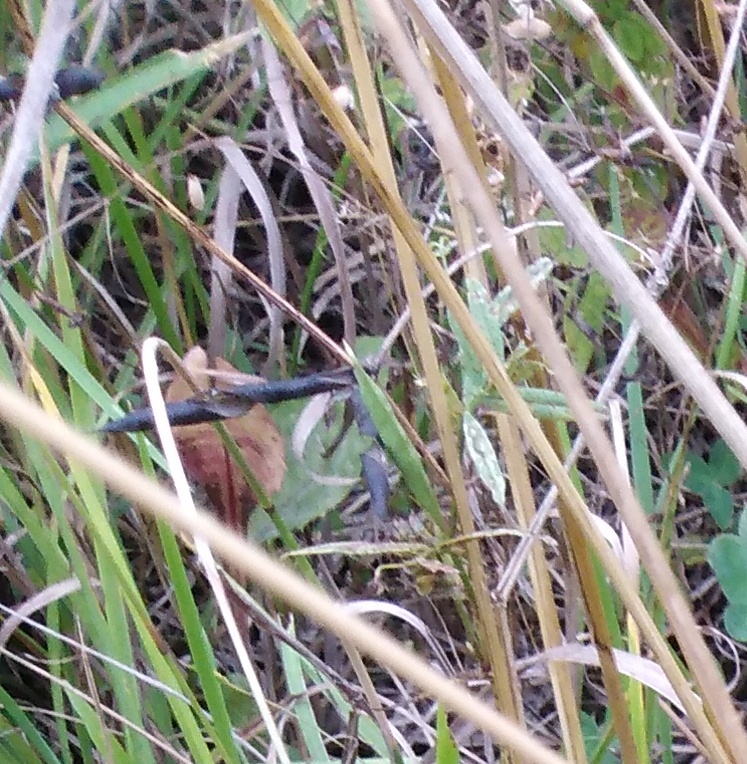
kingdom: Plantae
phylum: Tracheophyta
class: Magnoliopsida
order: Fabales
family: Fabaceae
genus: Vicia
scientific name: Vicia sepium
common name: Bush vetch
